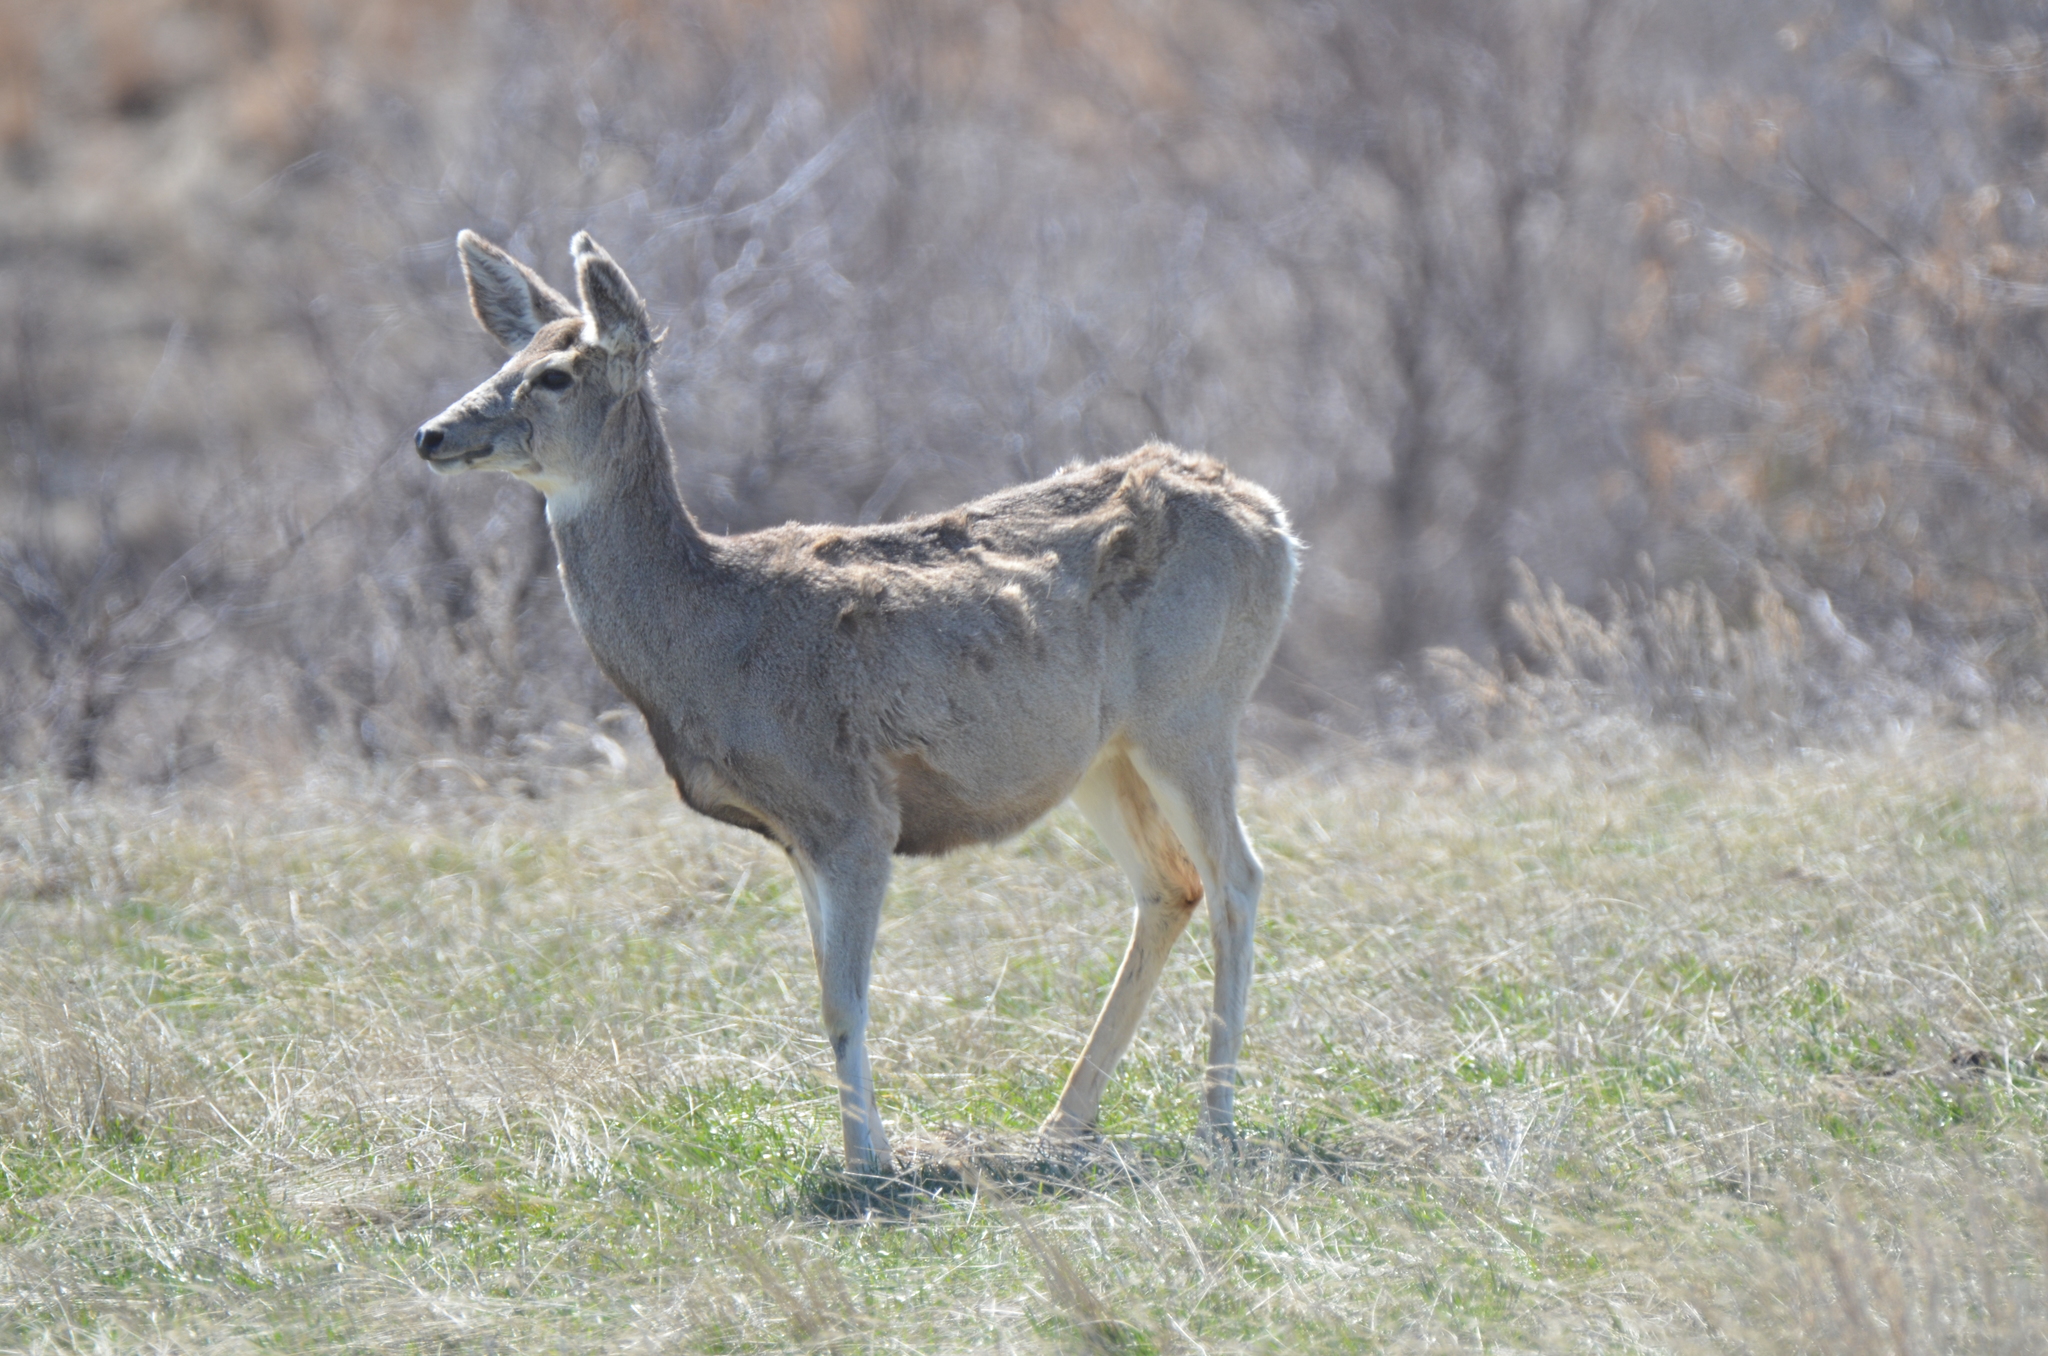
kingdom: Animalia
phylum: Chordata
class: Mammalia
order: Artiodactyla
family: Cervidae
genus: Odocoileus
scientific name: Odocoileus hemionus
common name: Mule deer
